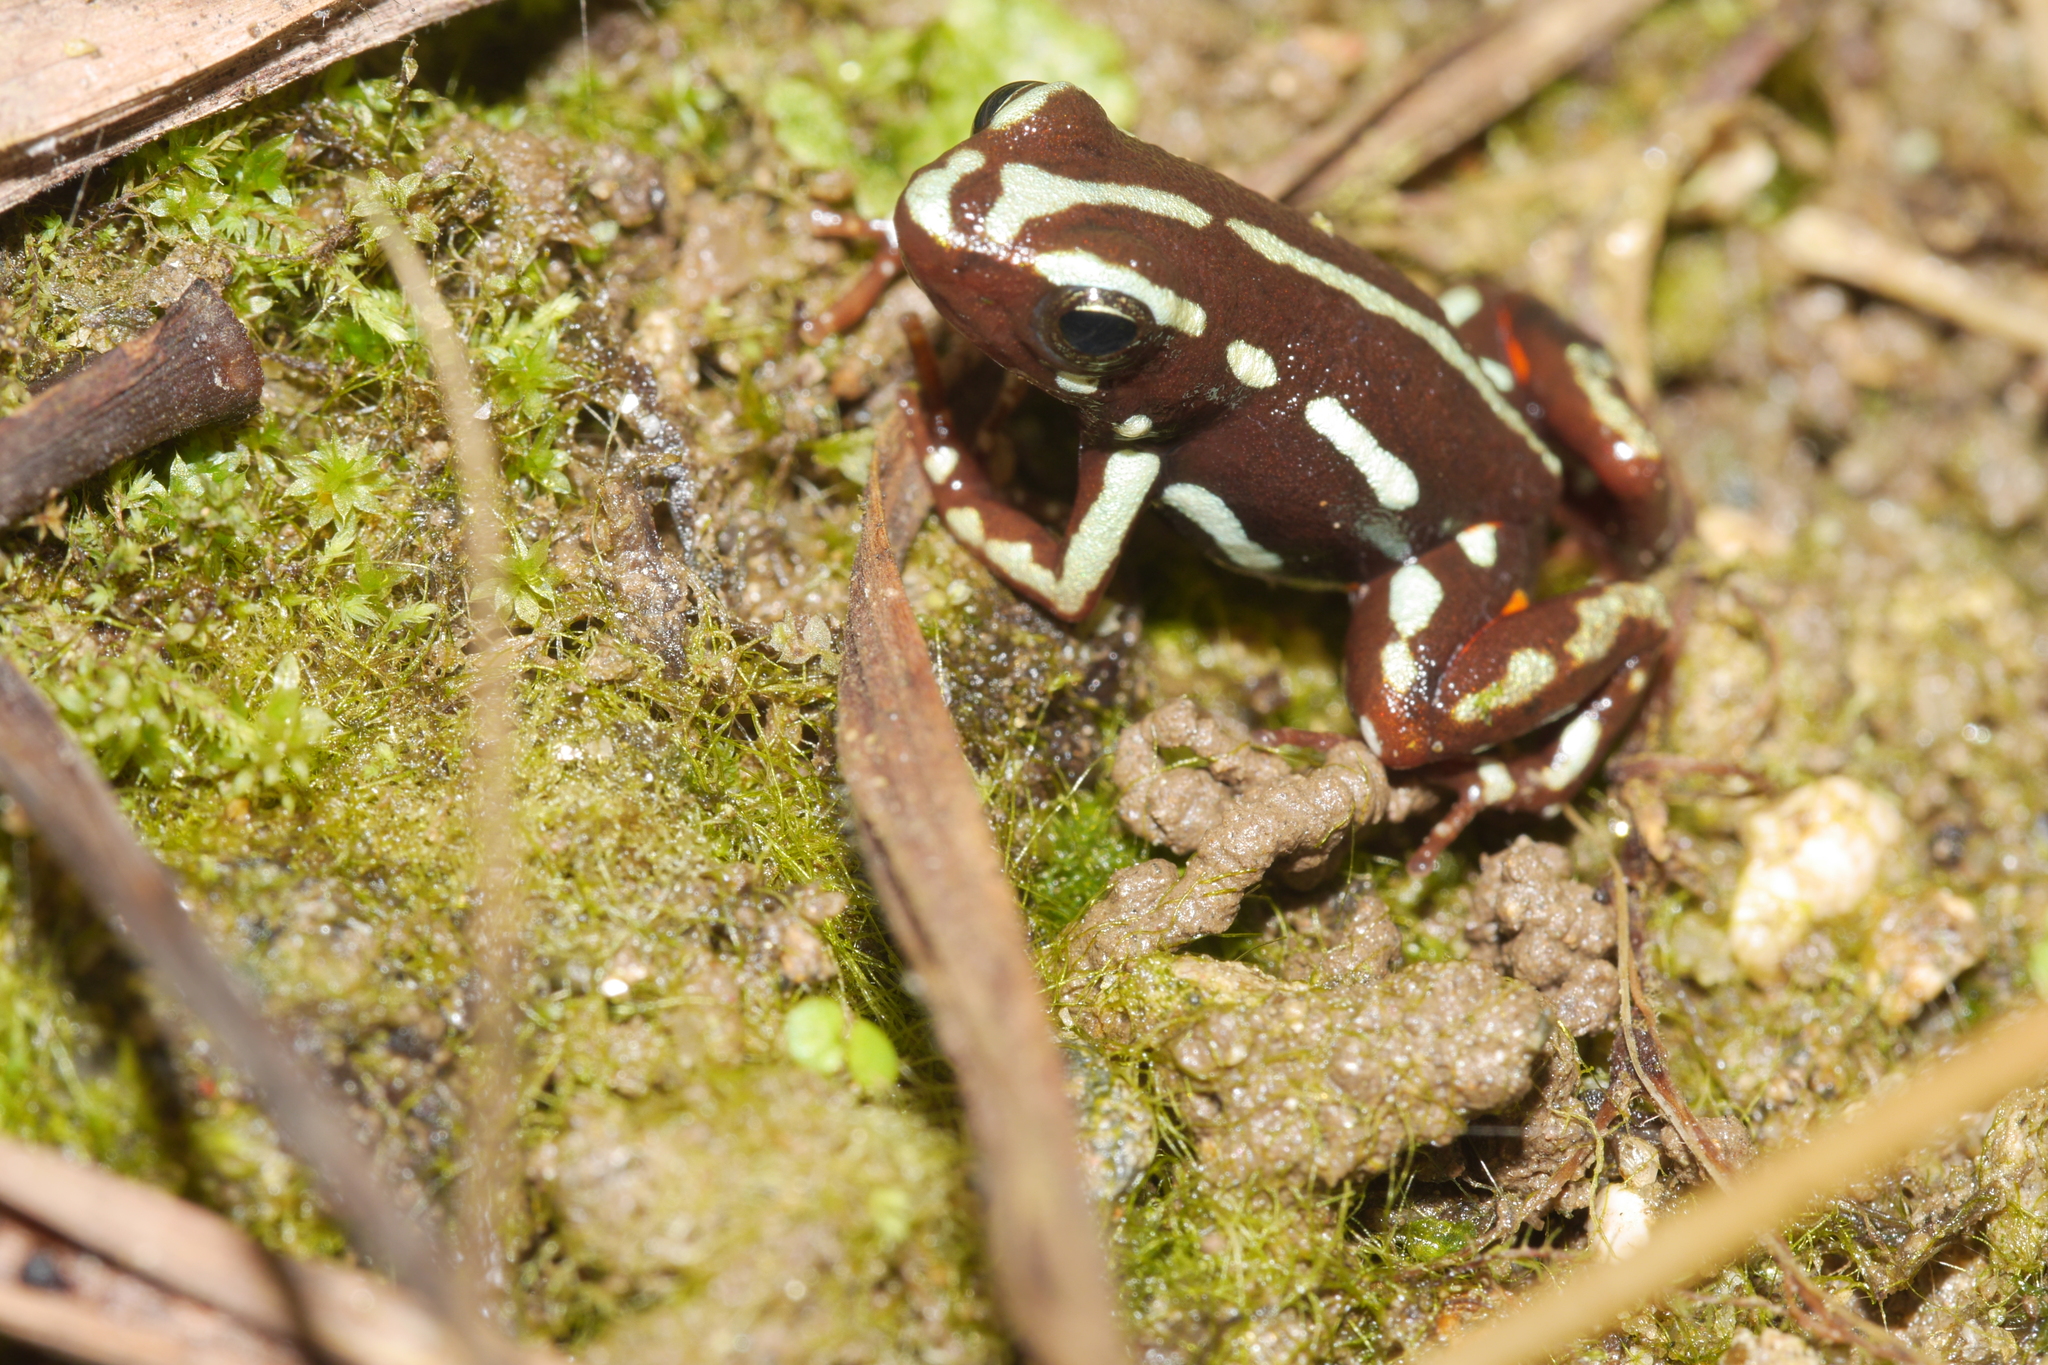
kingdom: Animalia
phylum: Chordata
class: Amphibia
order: Anura
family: Dendrobatidae
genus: Epipedobates
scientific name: Epipedobates anthonyi
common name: Anthony´s poison-arrow frog
